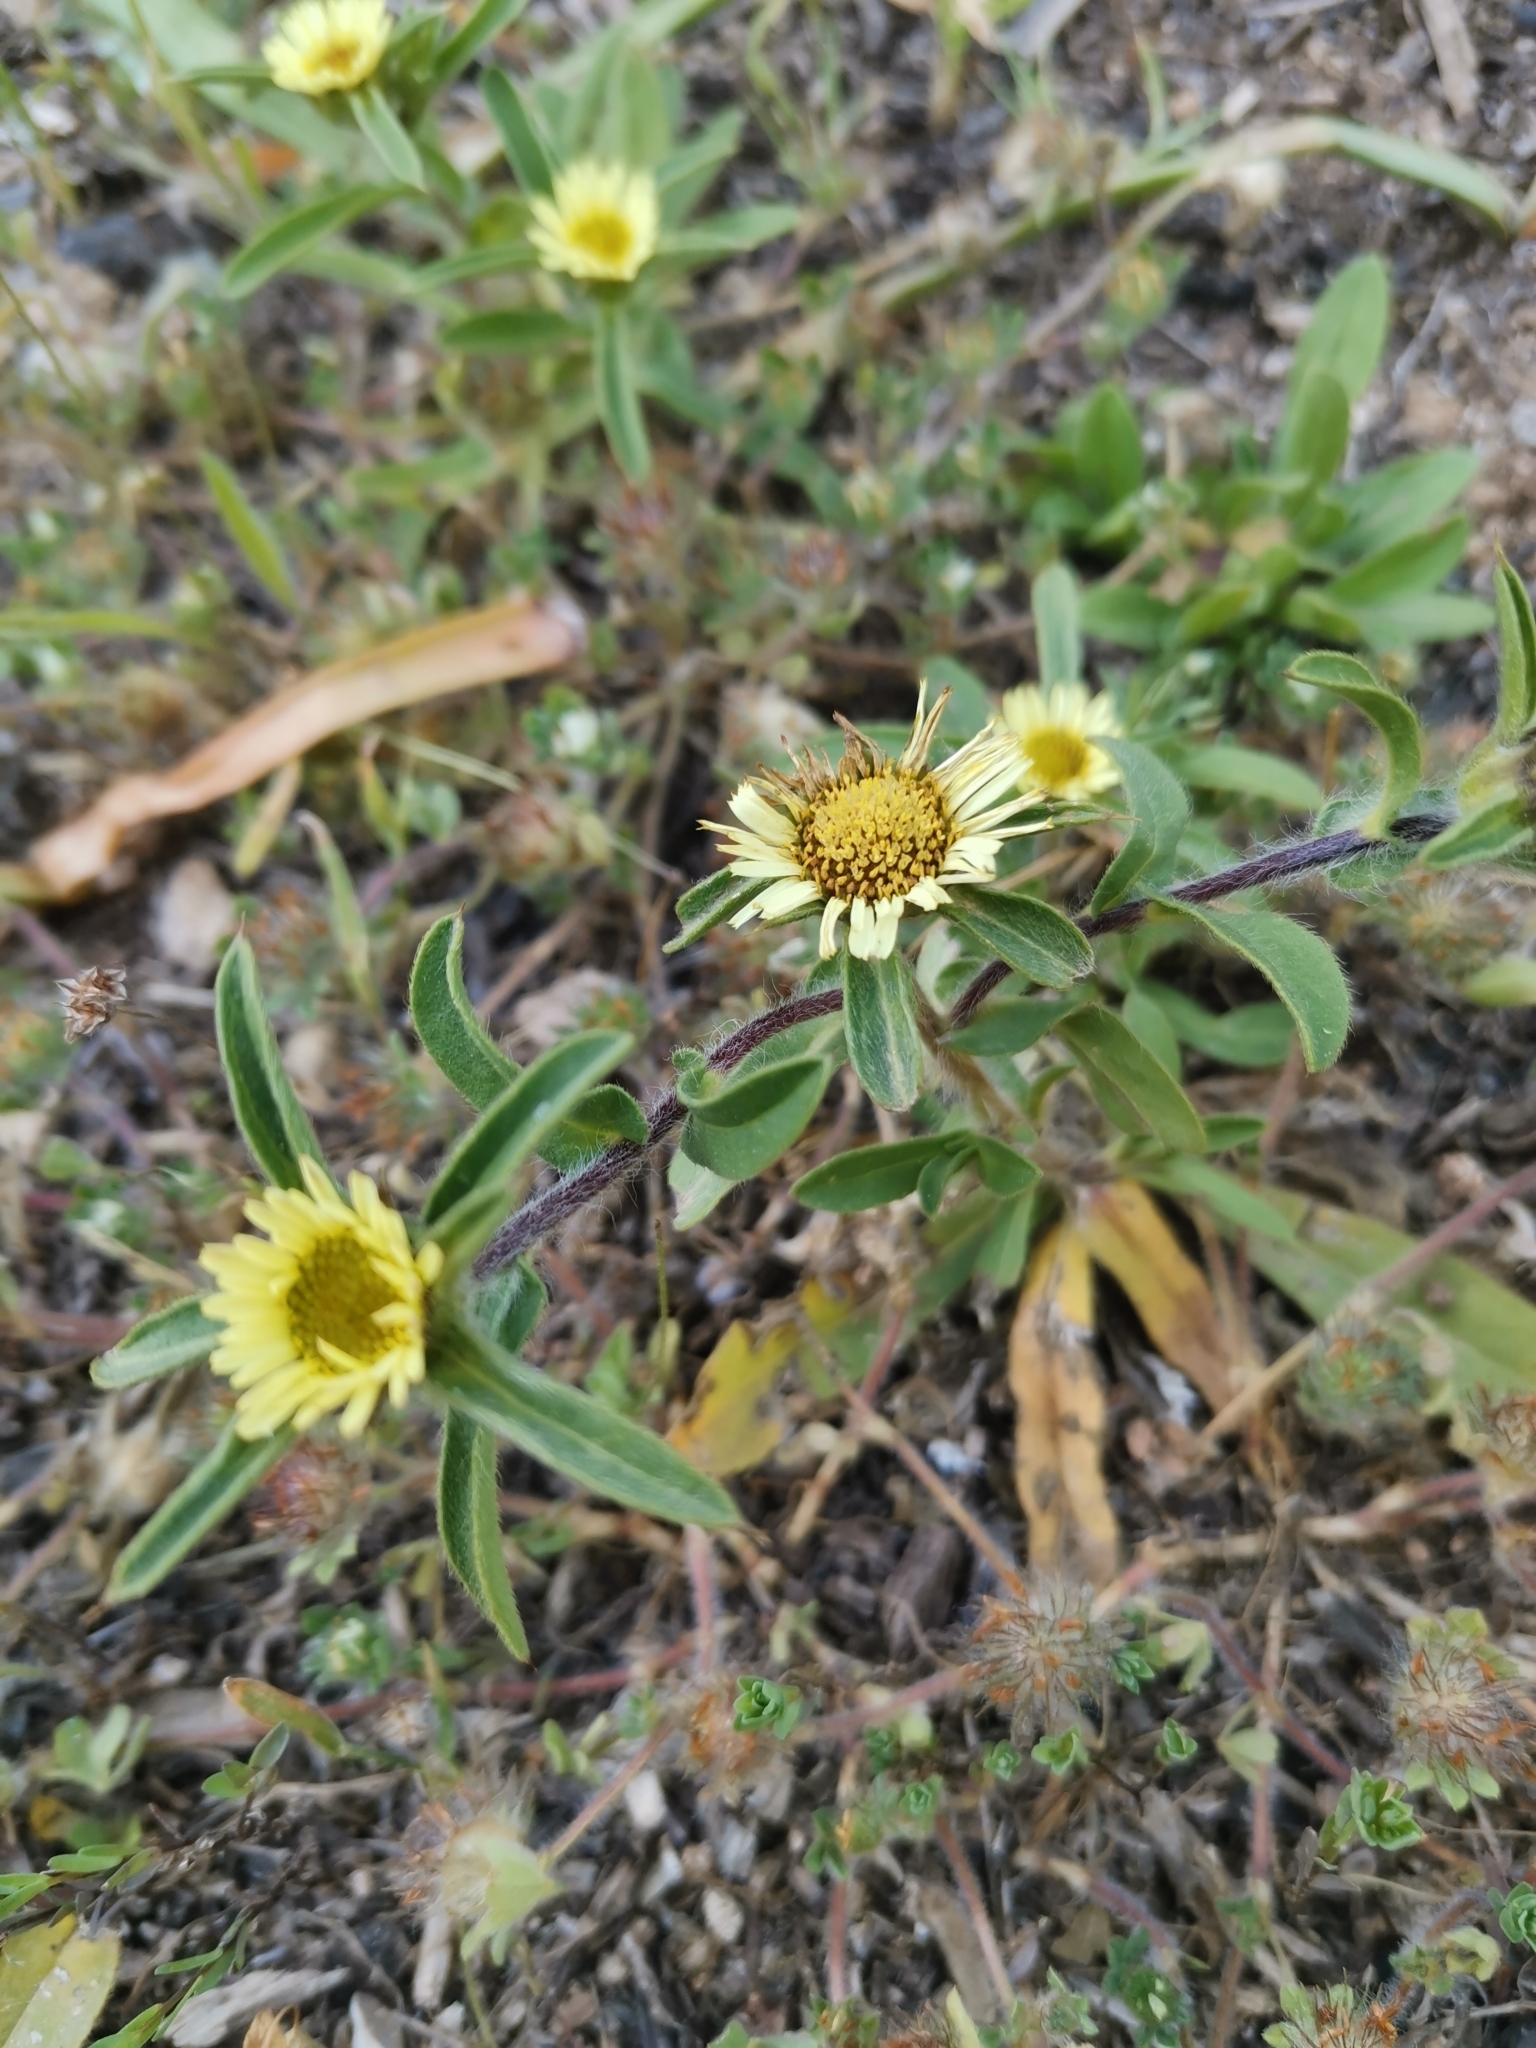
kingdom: Plantae
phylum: Tracheophyta
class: Magnoliopsida
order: Asterales
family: Asteraceae
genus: Pallenis
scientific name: Pallenis spinosa
